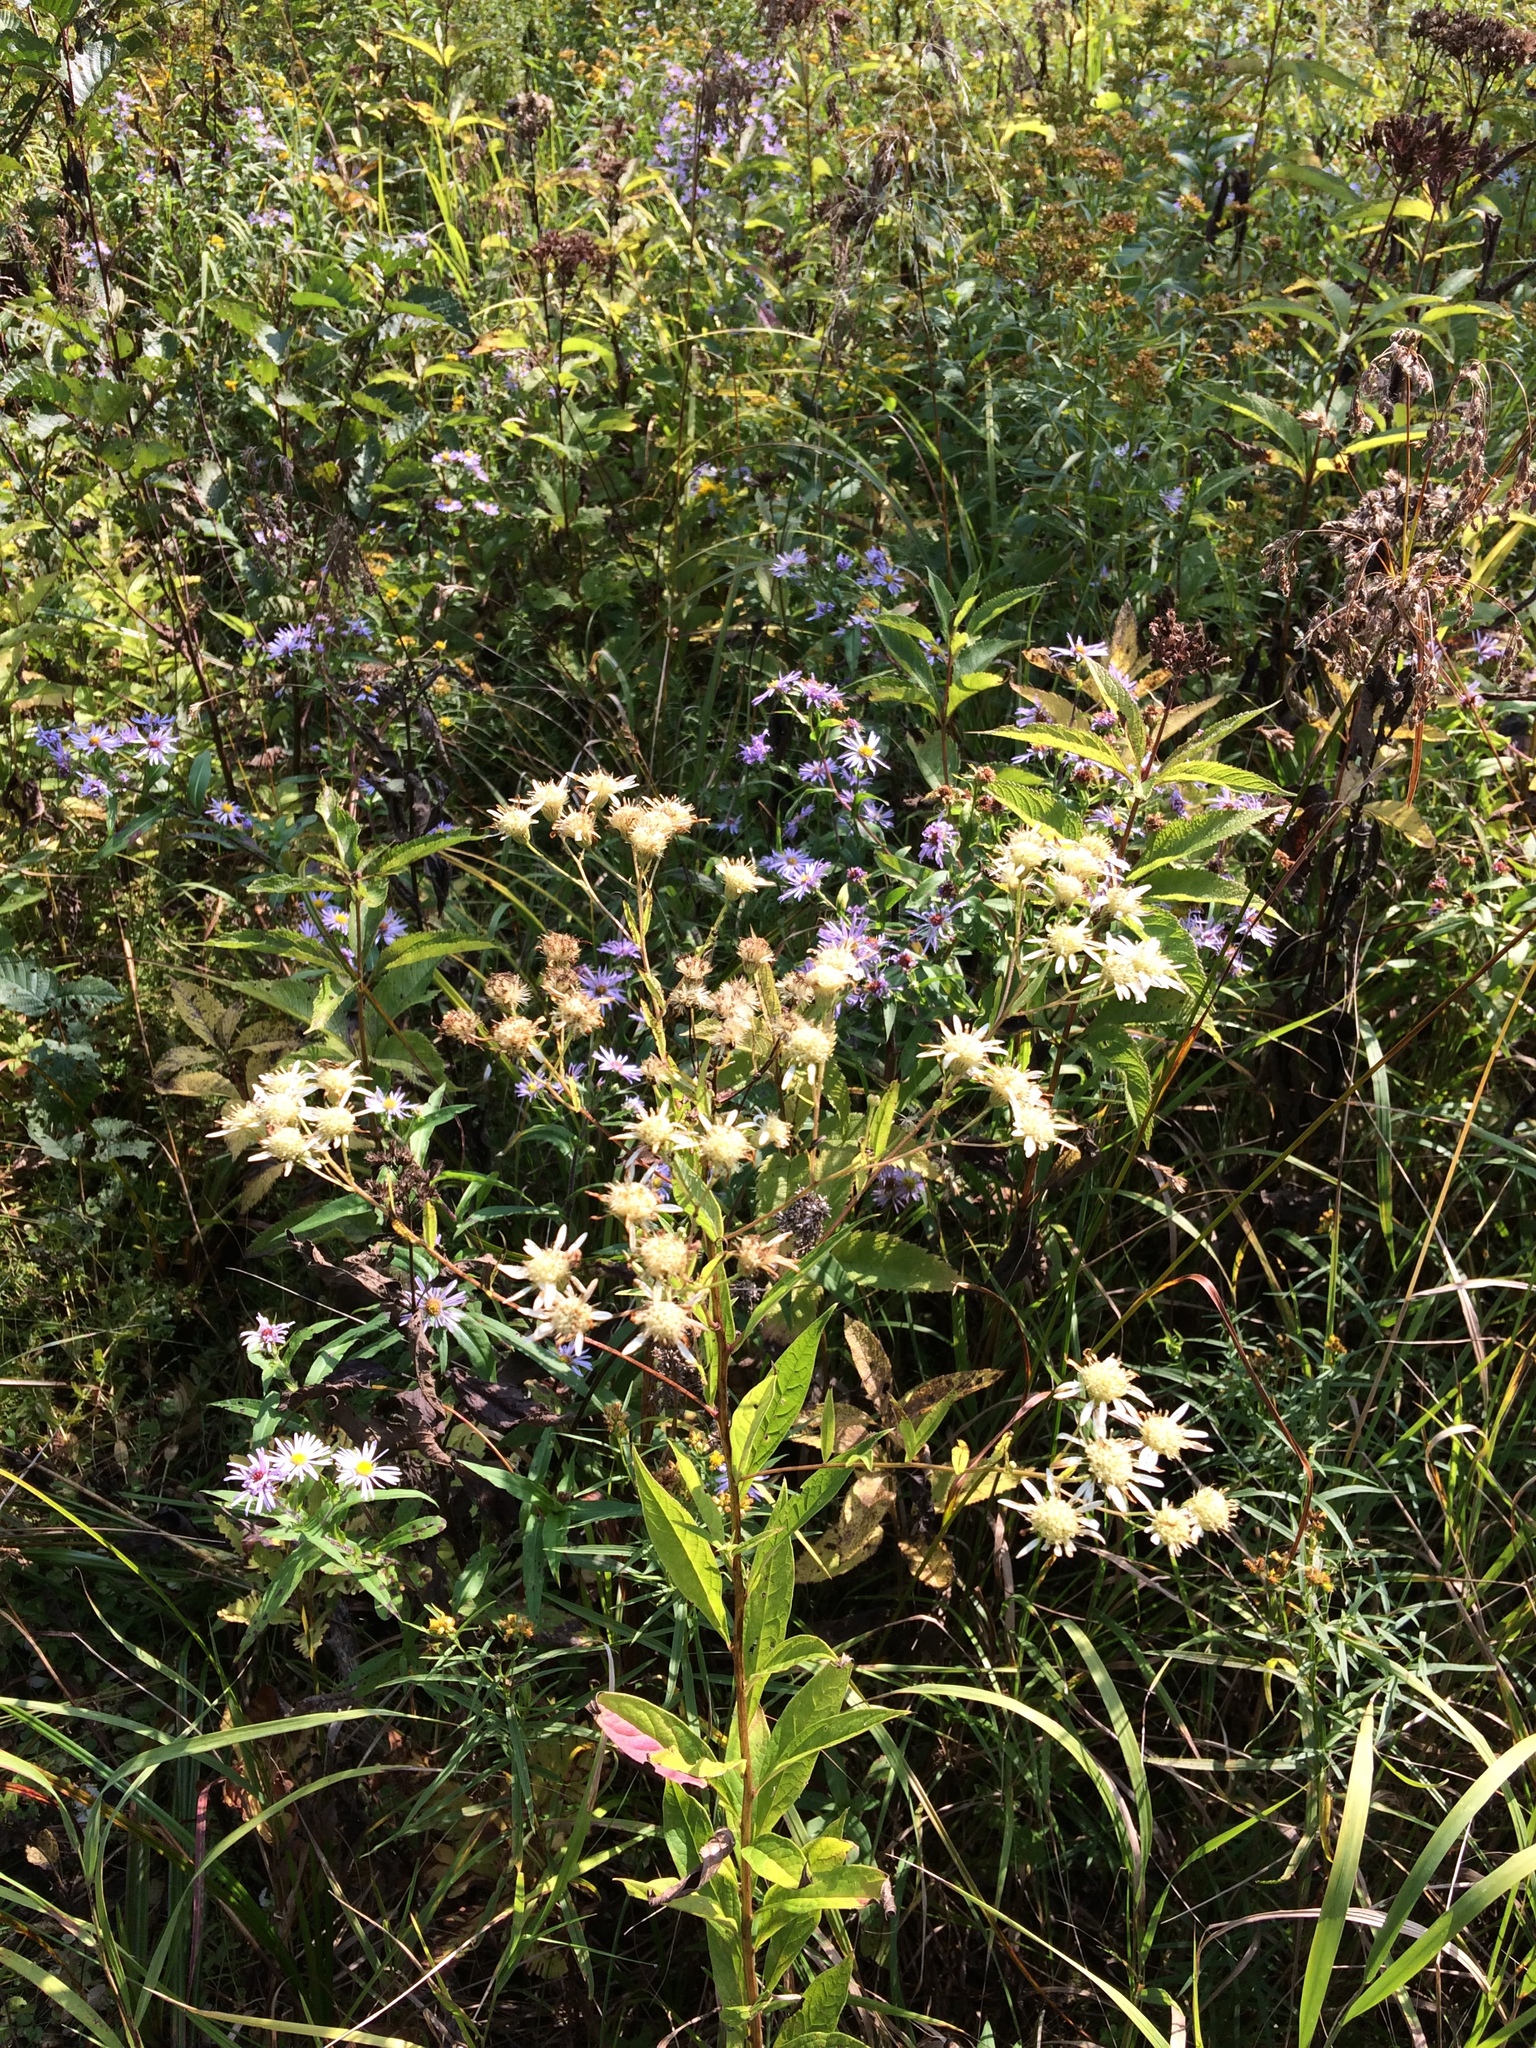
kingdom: Plantae
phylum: Tracheophyta
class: Magnoliopsida
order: Asterales
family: Asteraceae
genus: Doellingeria
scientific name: Doellingeria umbellata
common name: Flat-top white aster
